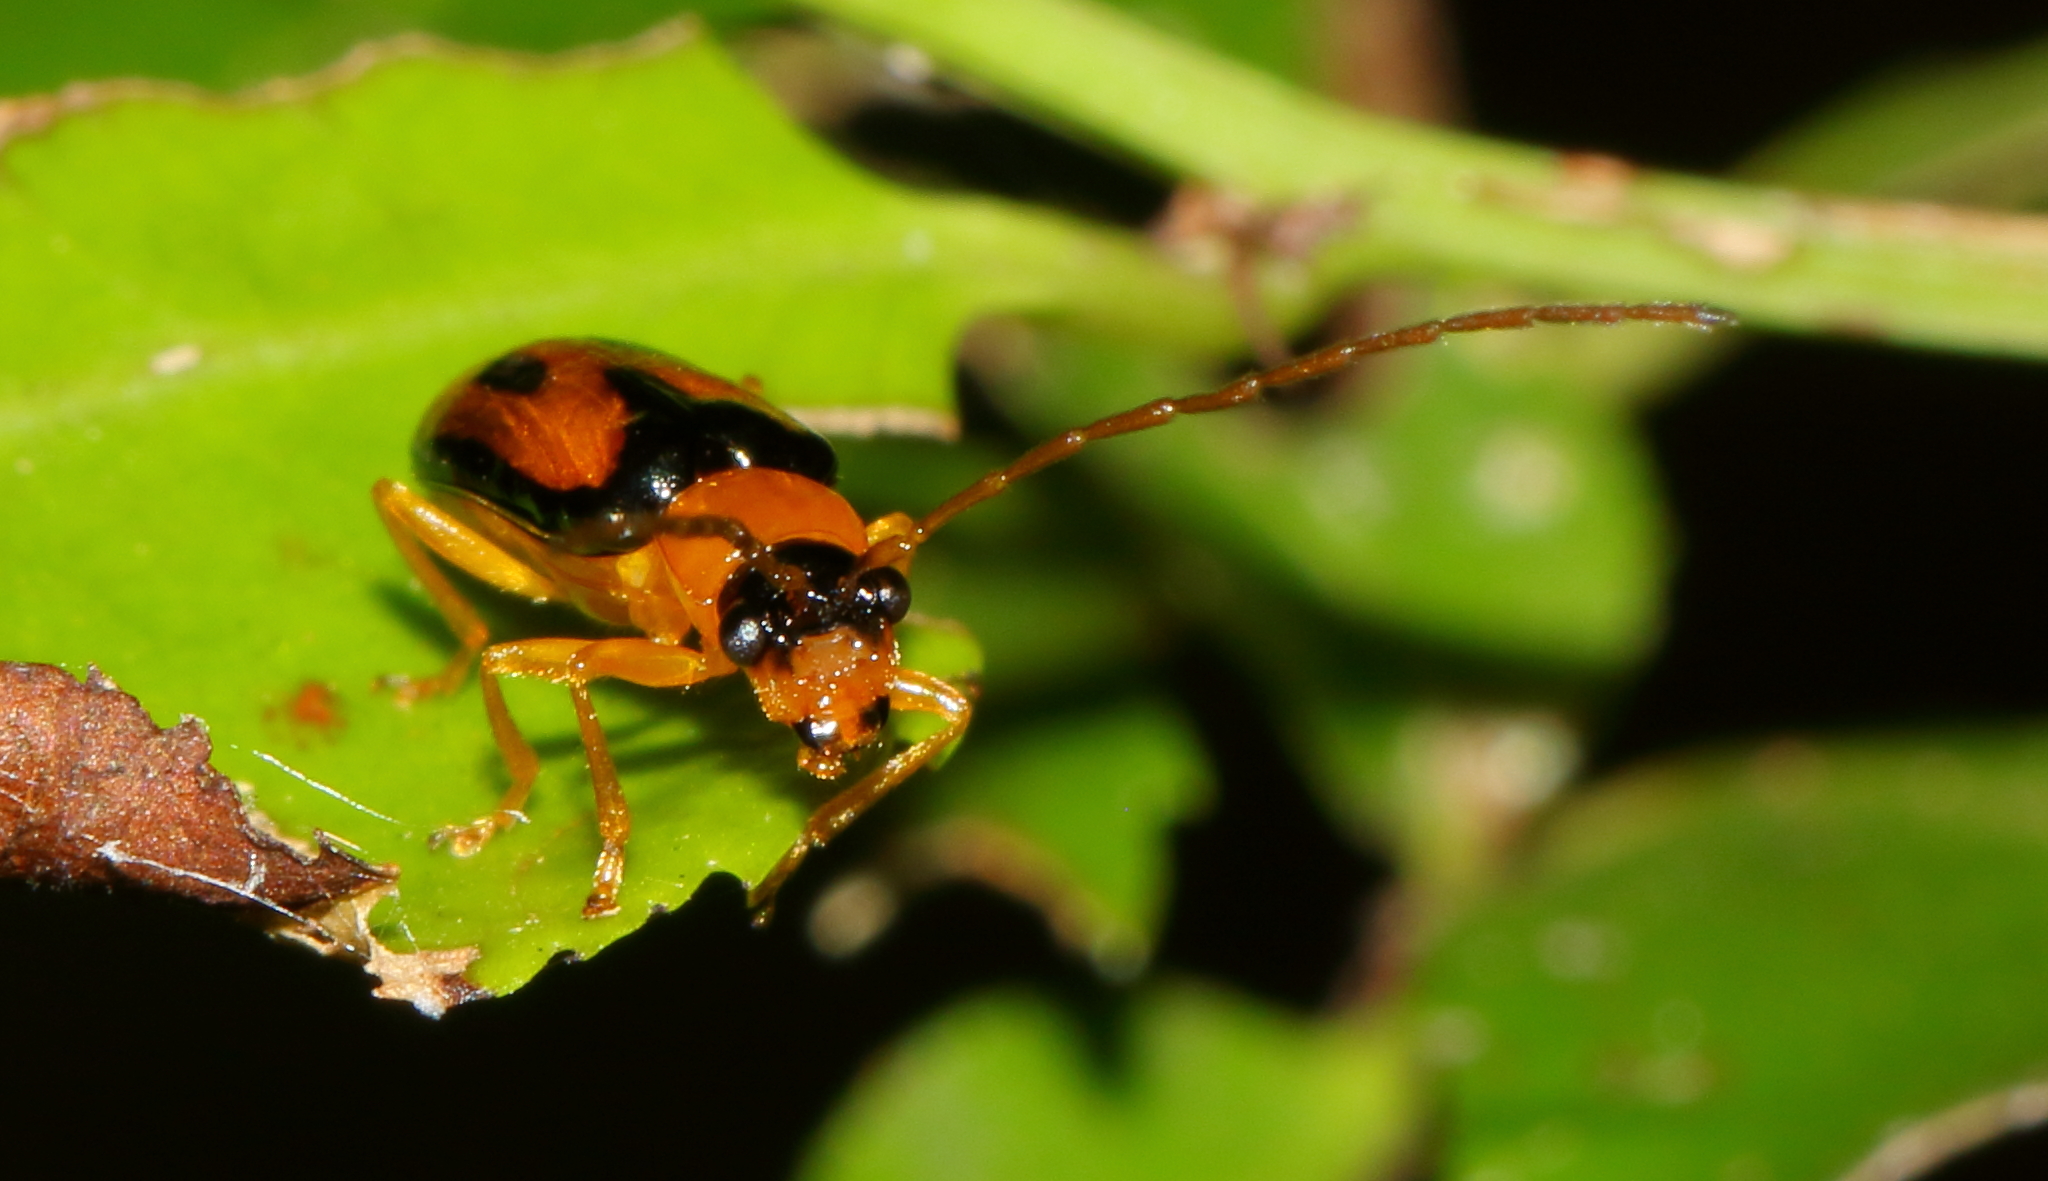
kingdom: Animalia
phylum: Arthropoda
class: Insecta
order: Coleoptera
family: Chrysomelidae
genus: Spilocephalus
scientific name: Spilocephalus
